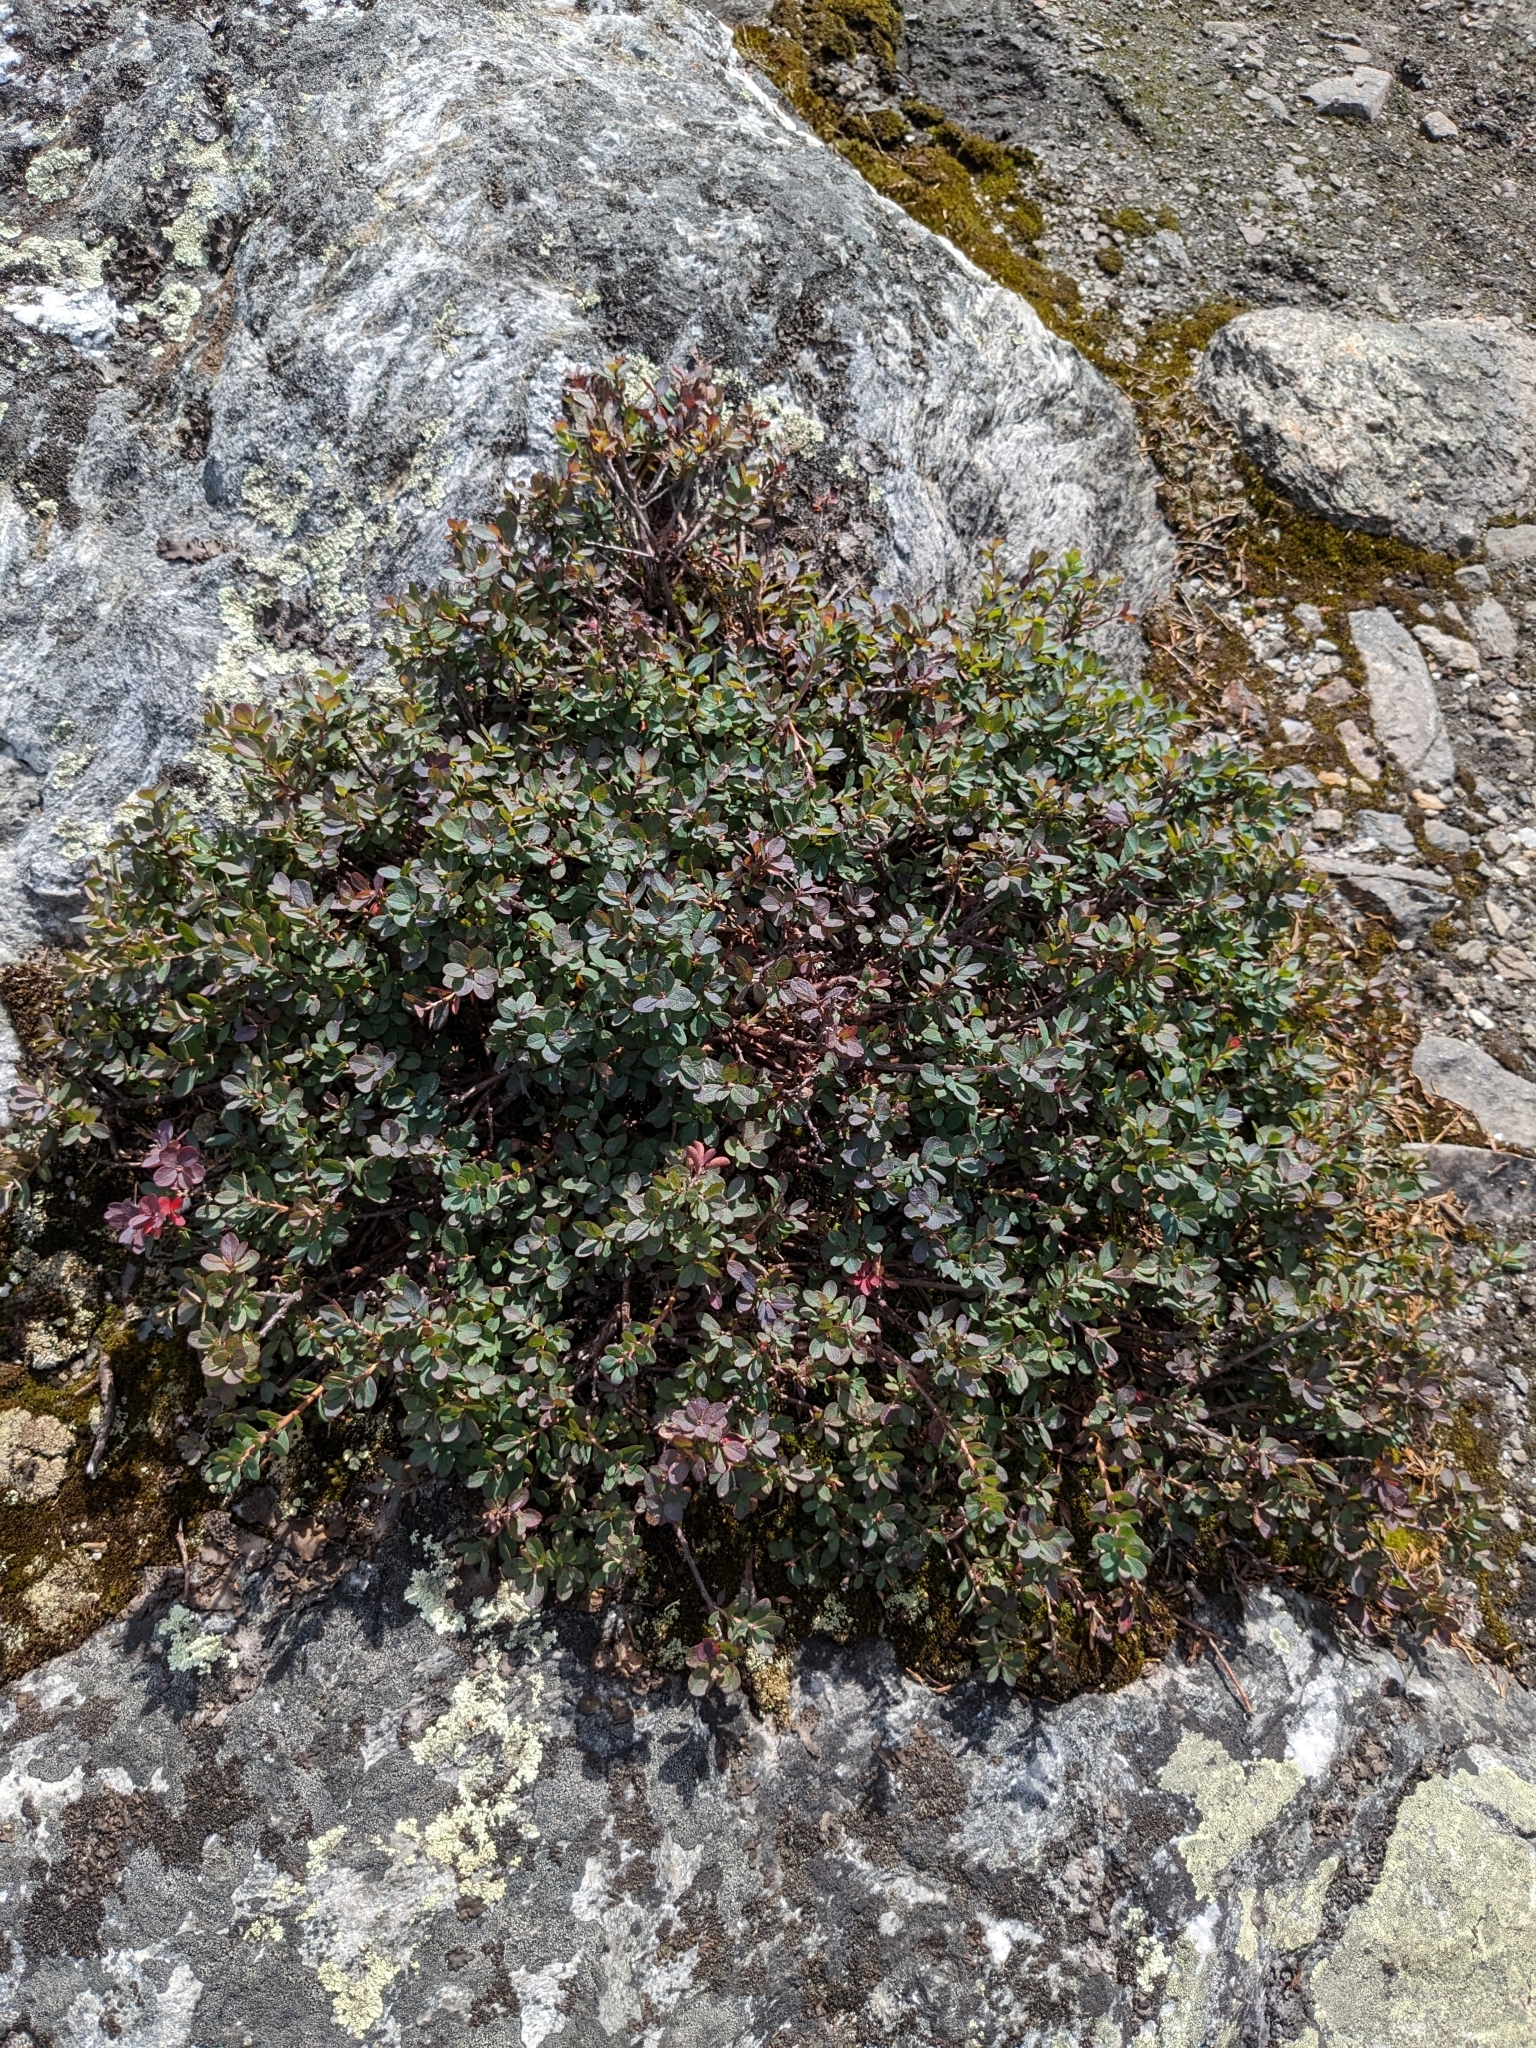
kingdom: Plantae
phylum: Tracheophyta
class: Magnoliopsida
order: Ericales
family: Ericaceae
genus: Vaccinium
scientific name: Vaccinium uliginosum
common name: Bog bilberry
